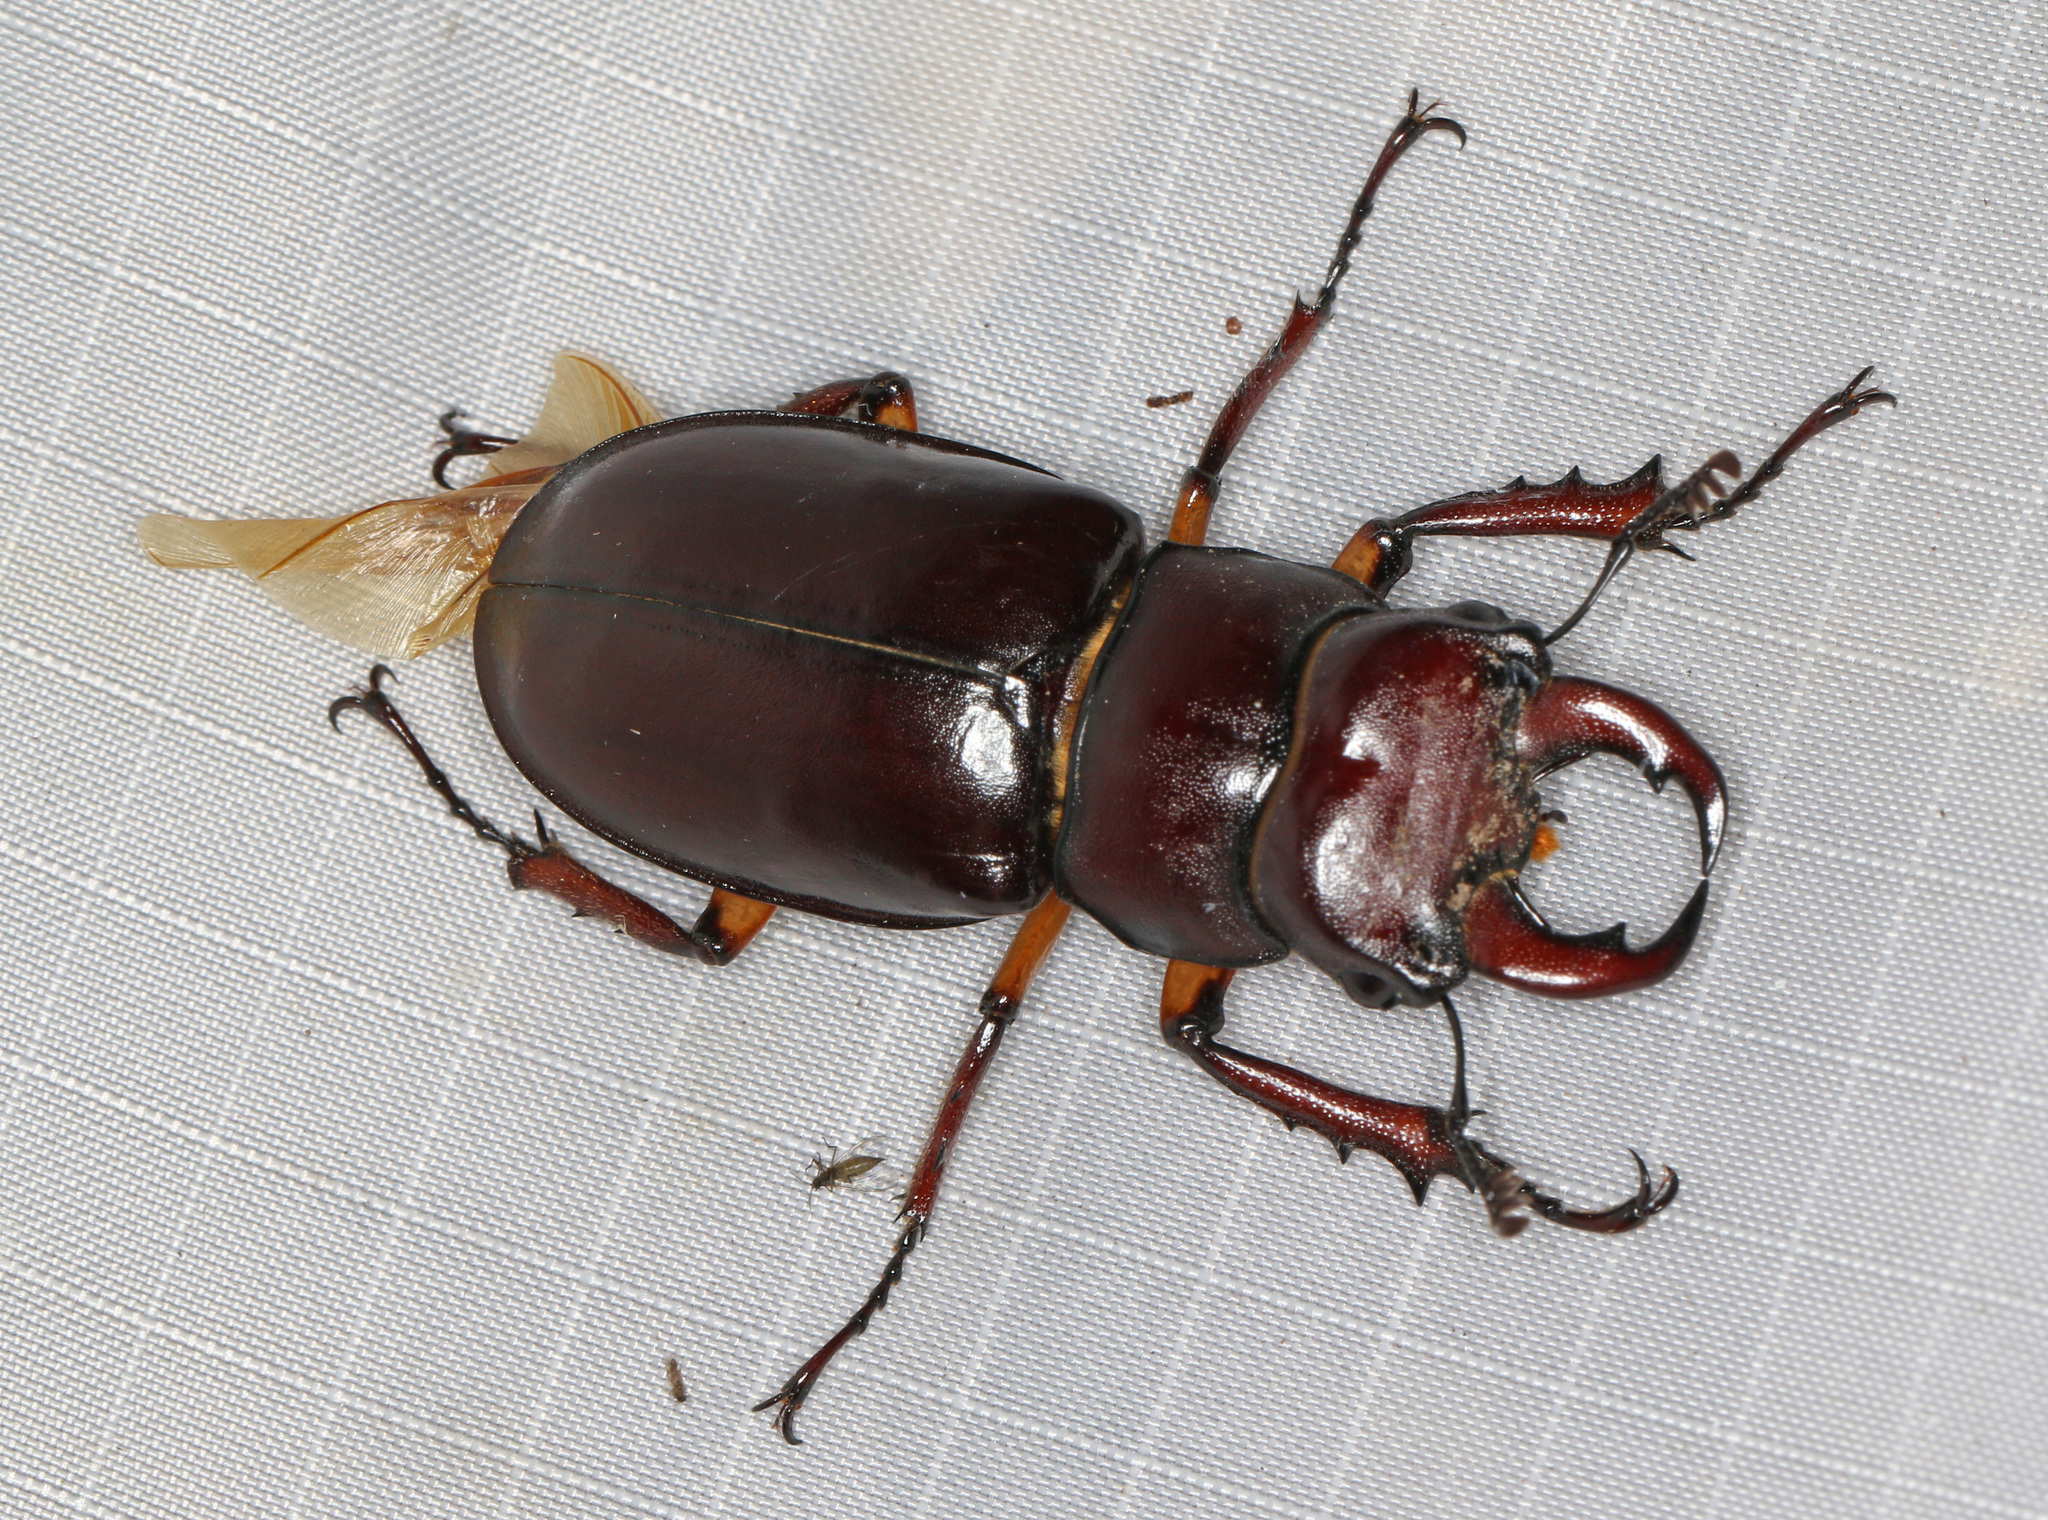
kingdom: Animalia
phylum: Arthropoda
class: Insecta
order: Coleoptera
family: Lucanidae
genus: Lucanus
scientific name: Lucanus capreolus
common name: Stag beetle
